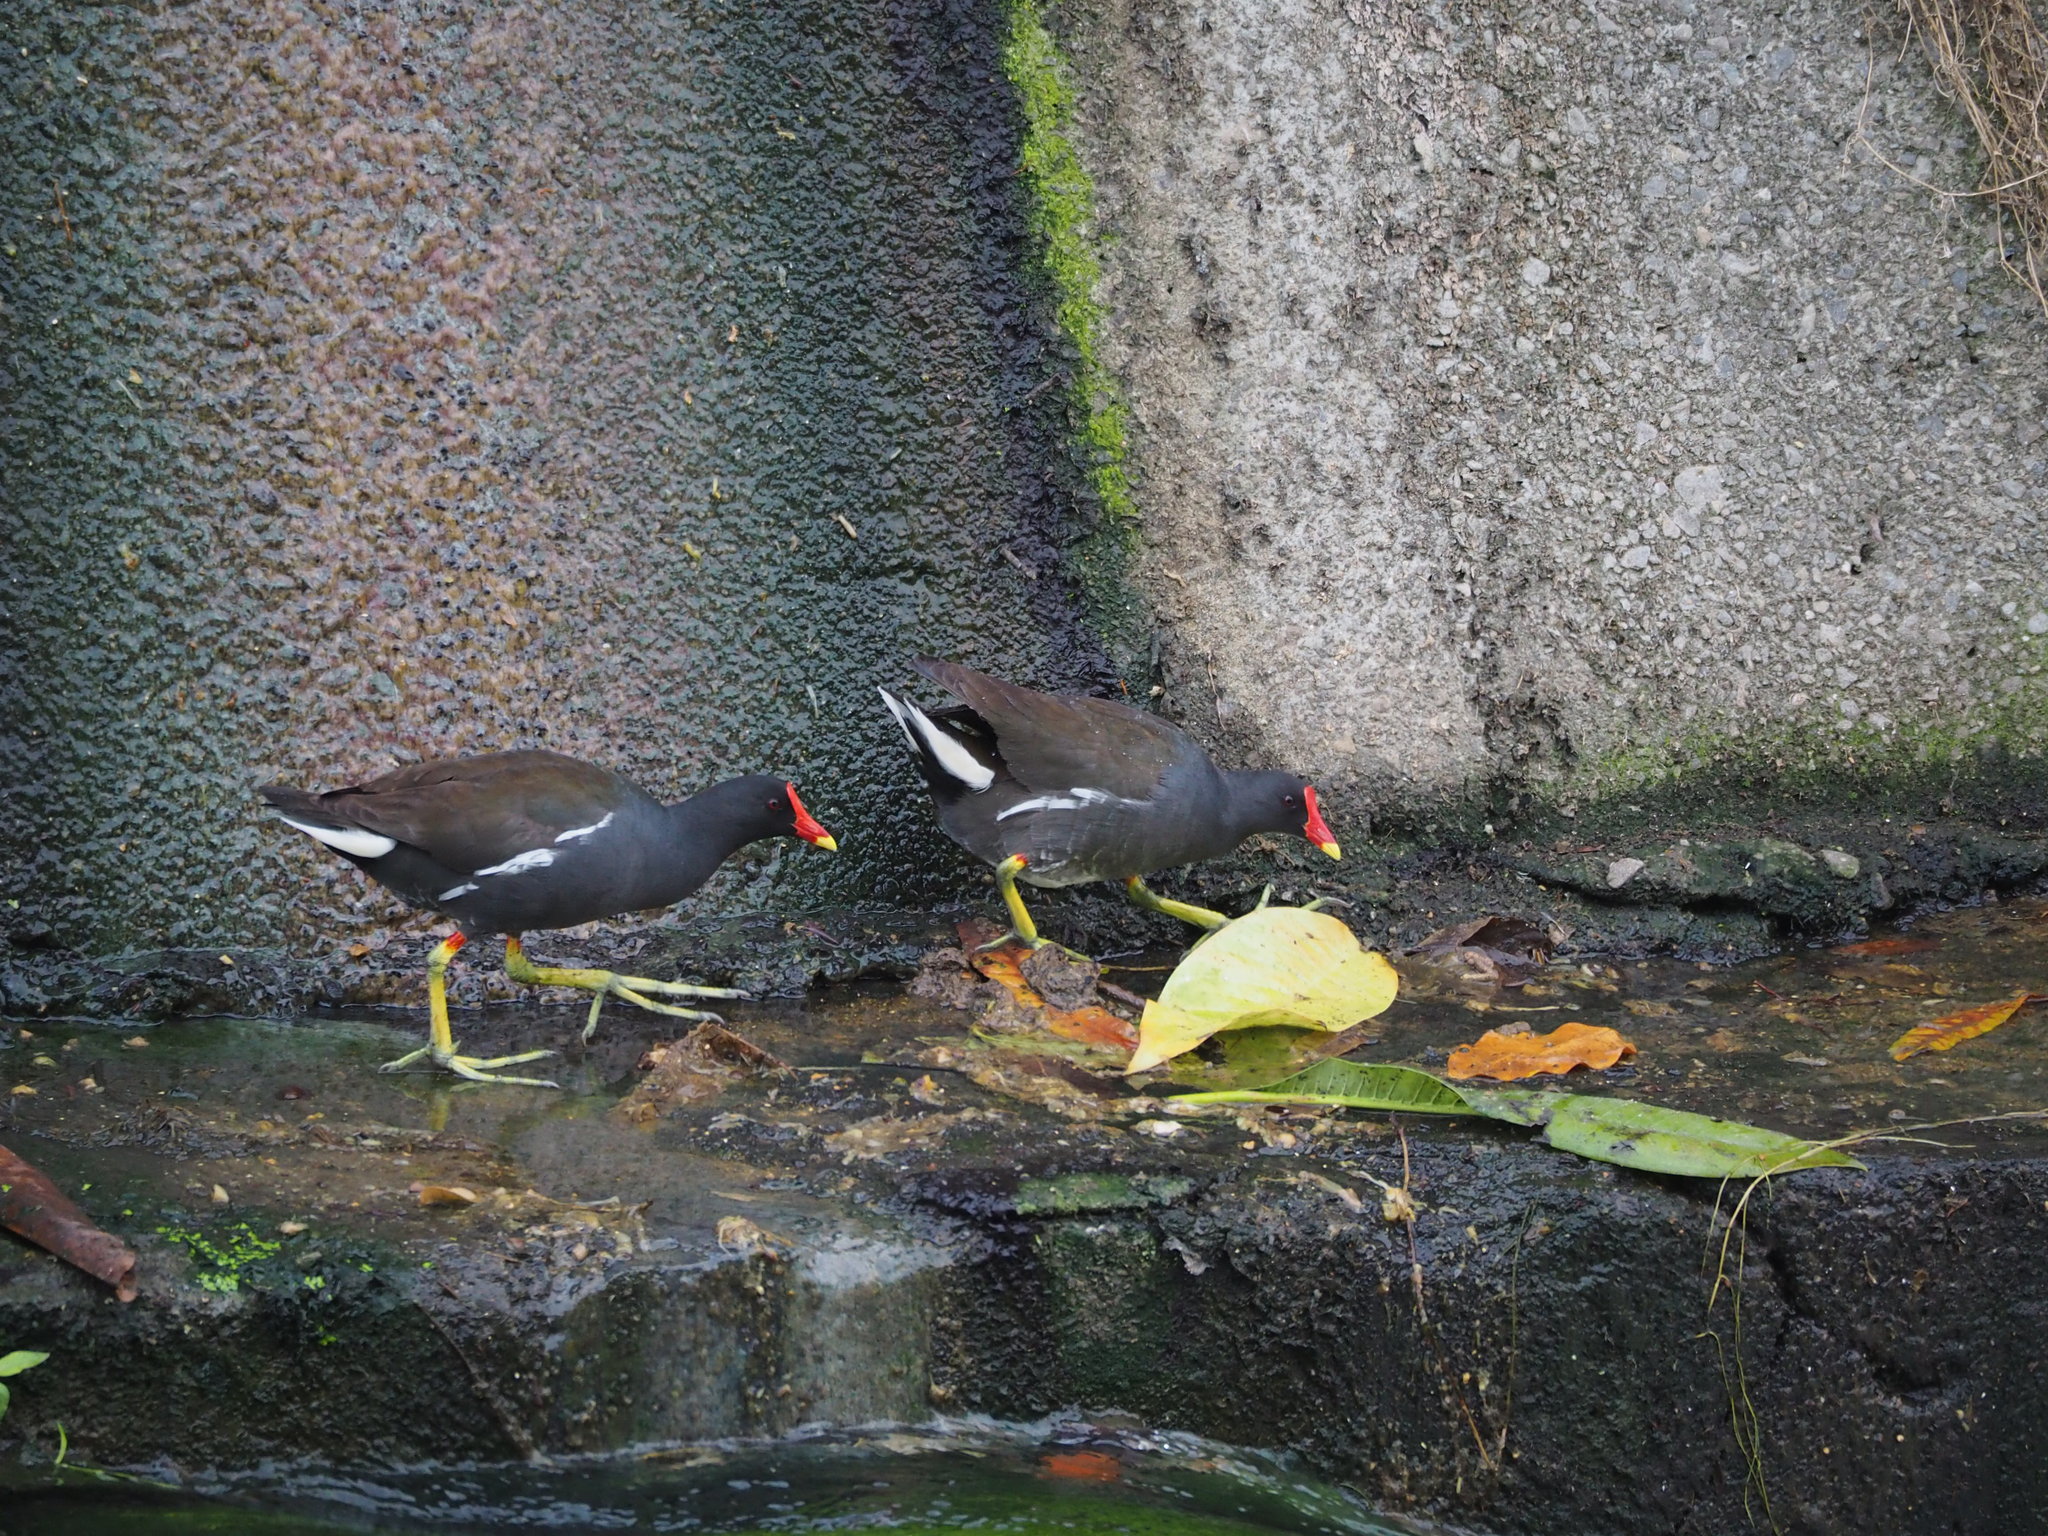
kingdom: Animalia
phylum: Chordata
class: Aves
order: Gruiformes
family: Rallidae
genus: Gallinula
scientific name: Gallinula chloropus
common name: Common moorhen
